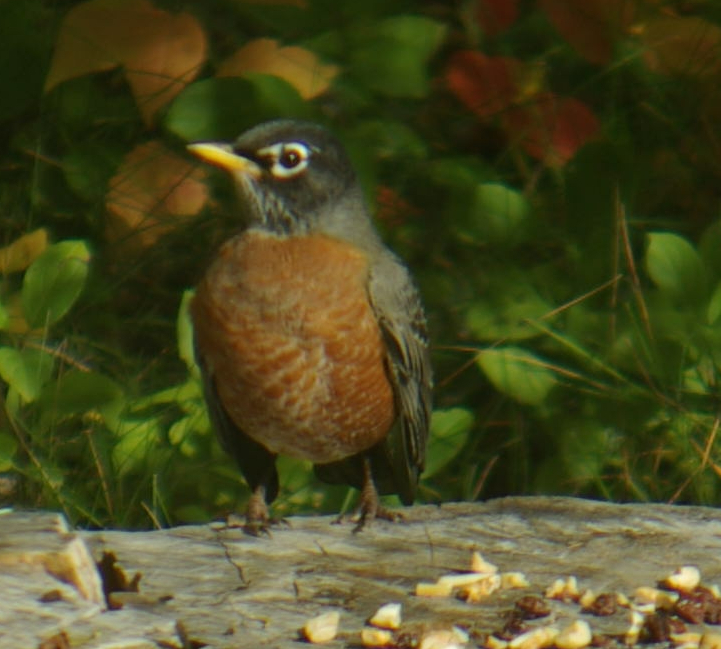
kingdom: Animalia
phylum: Chordata
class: Aves
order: Passeriformes
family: Turdidae
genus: Turdus
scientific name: Turdus migratorius
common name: American robin
